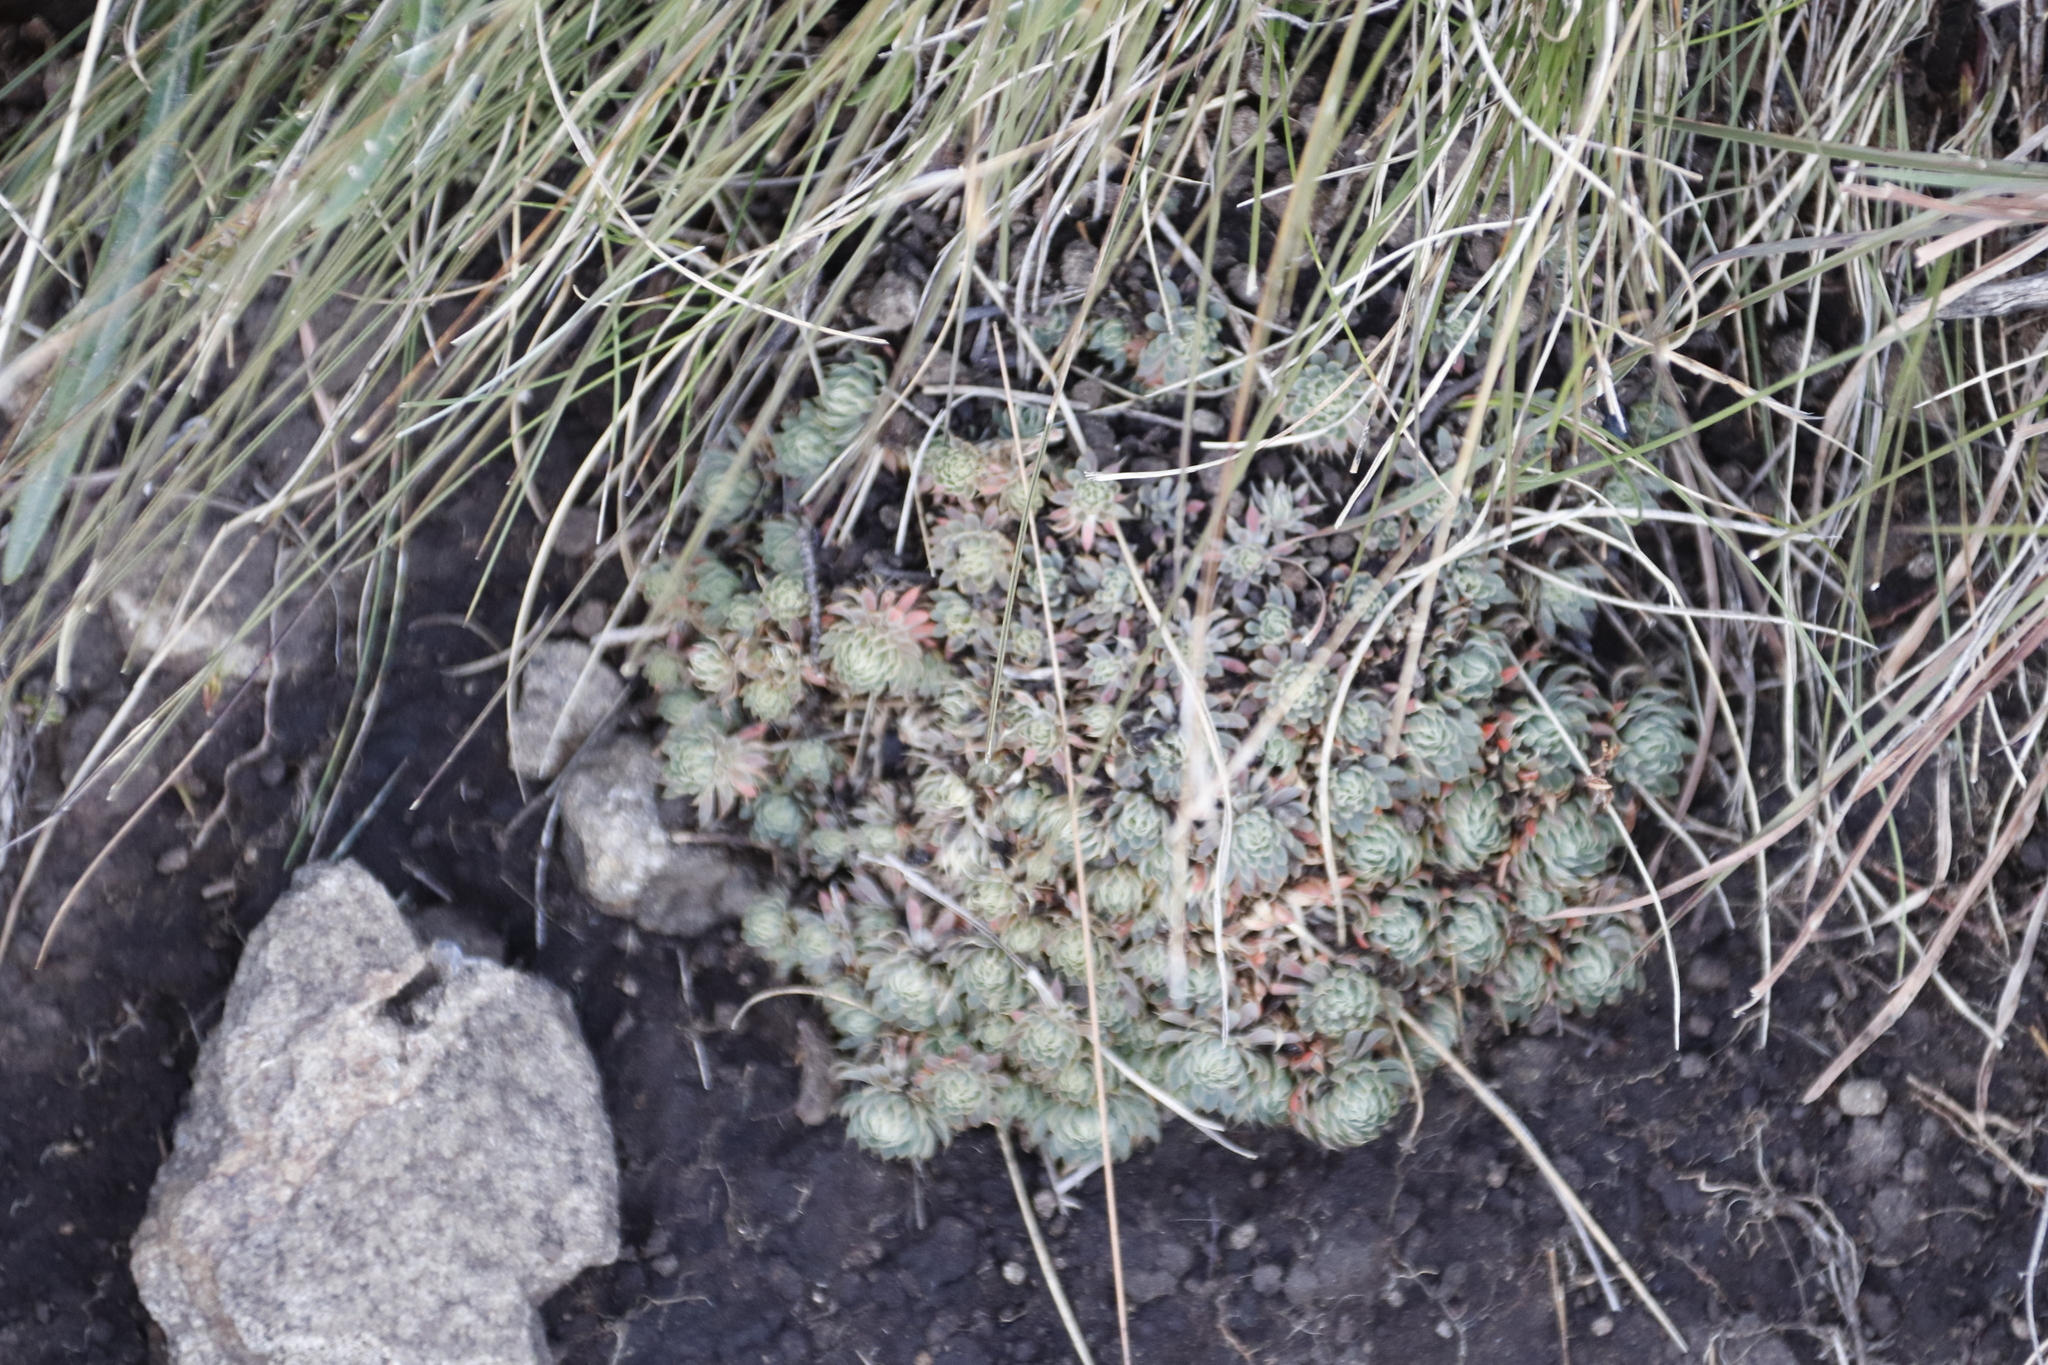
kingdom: Plantae
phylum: Tracheophyta
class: Magnoliopsida
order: Caryophyllales
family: Molluginaceae
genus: Psammotropha
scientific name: Psammotropha mucronata
